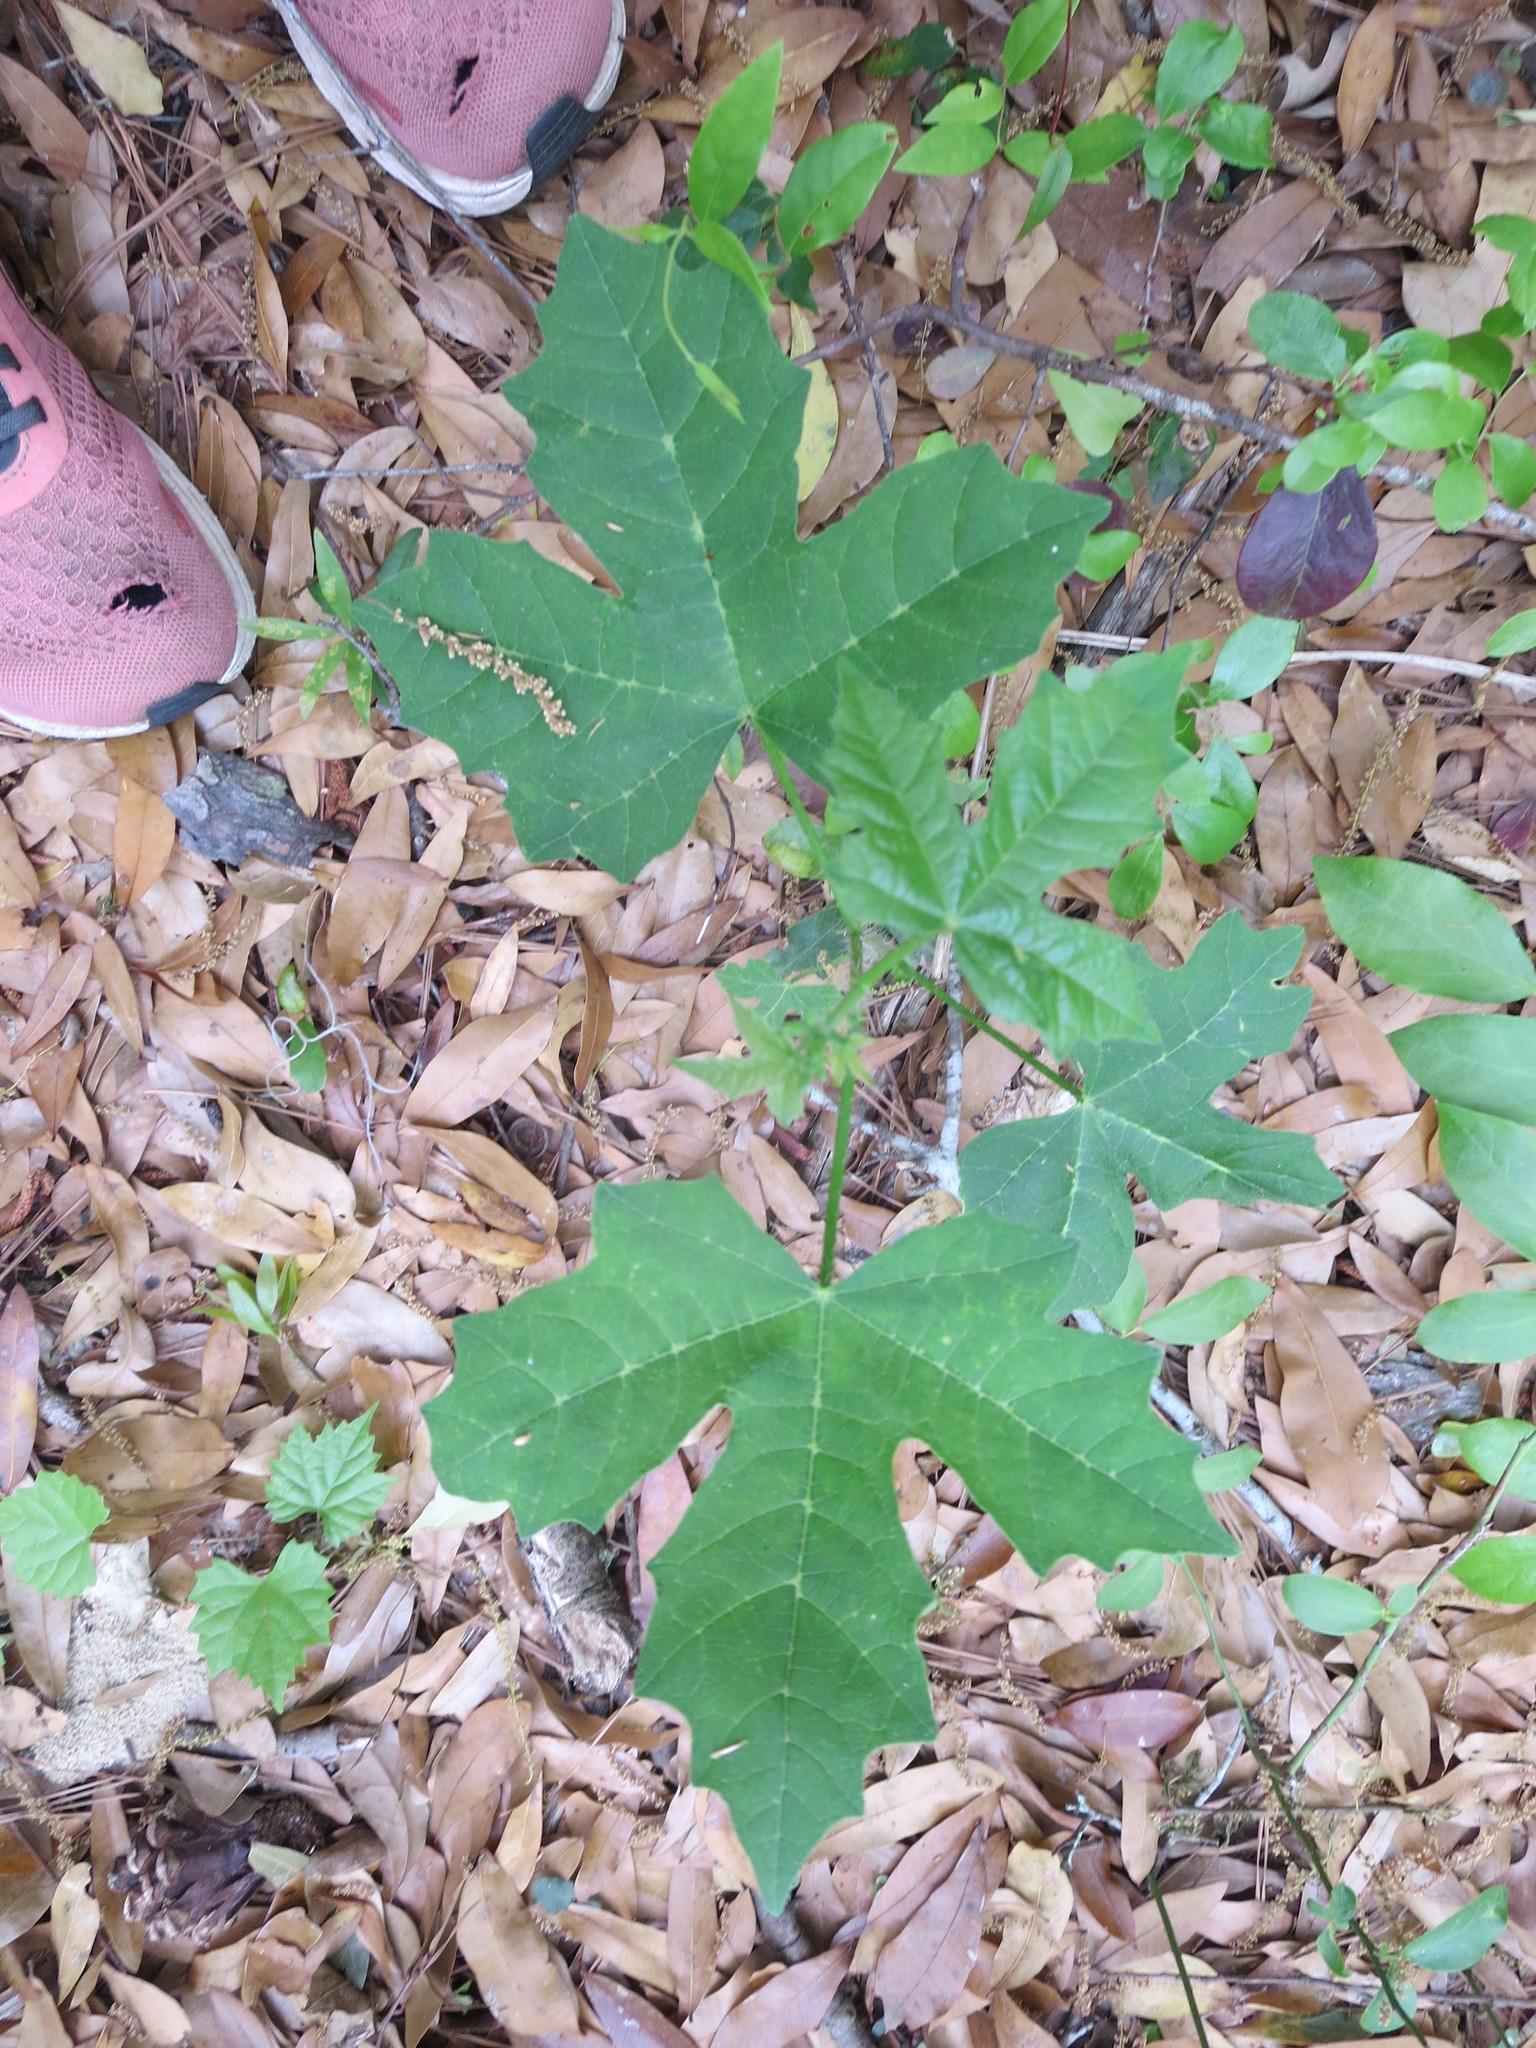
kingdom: Plantae
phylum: Tracheophyta
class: Magnoliopsida
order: Malpighiales
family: Euphorbiaceae
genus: Cnidoscolus
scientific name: Cnidoscolus stimulosus
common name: Bull-nettle
